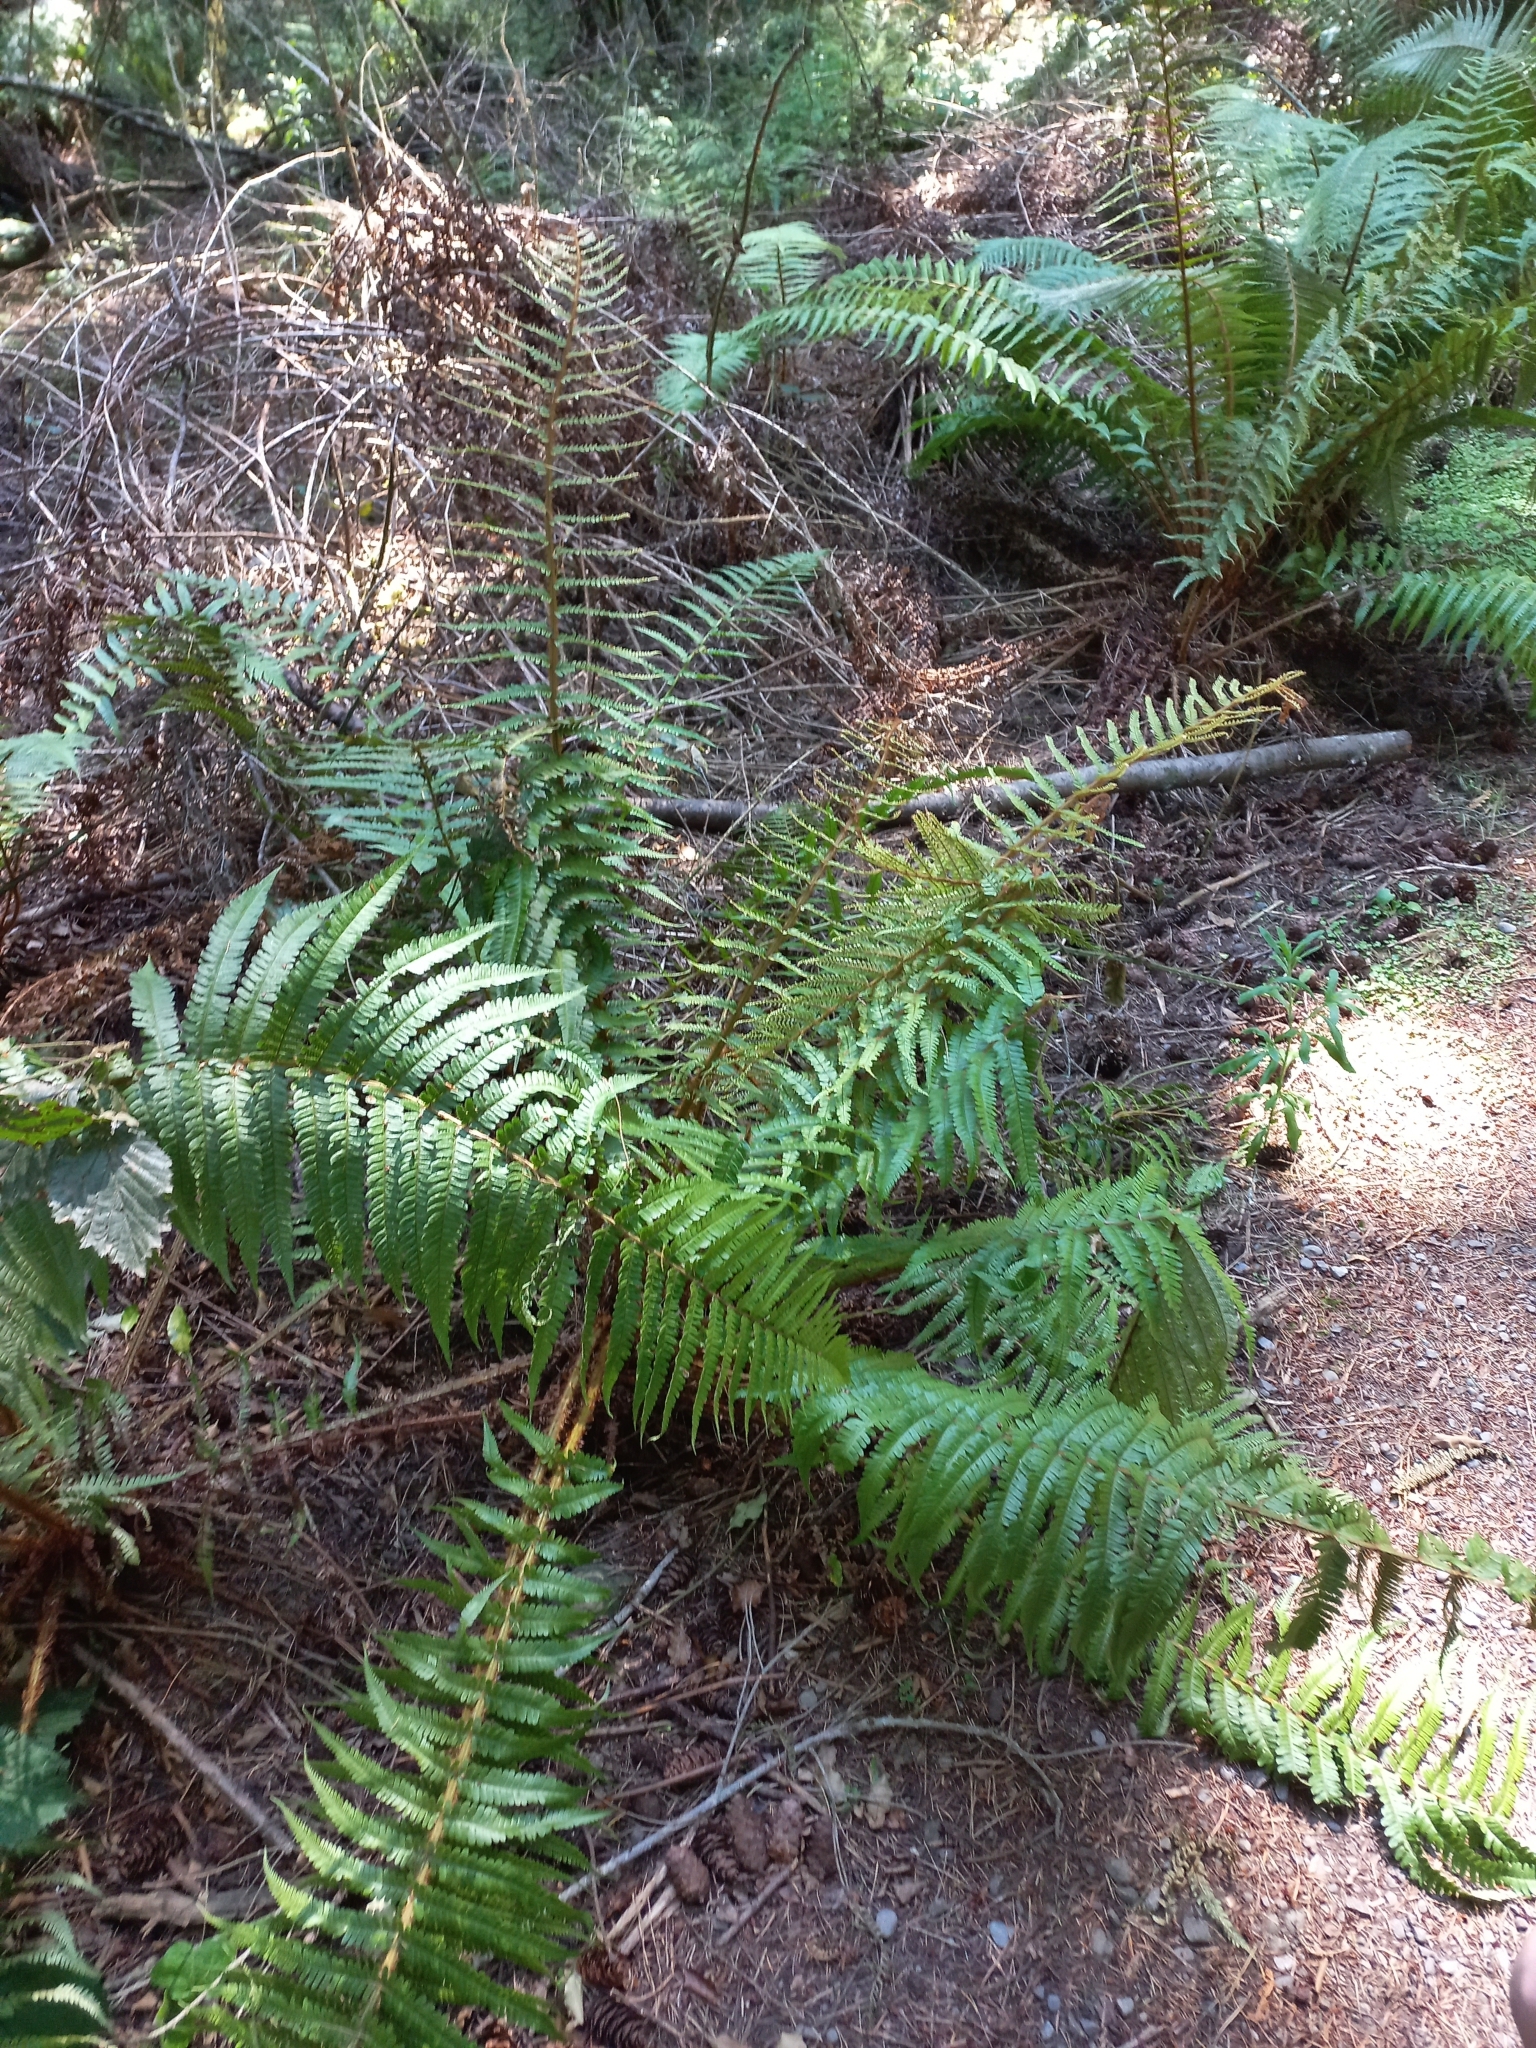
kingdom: Plantae
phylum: Tracheophyta
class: Polypodiopsida
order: Polypodiales
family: Dryopteridaceae
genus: Dryopteris
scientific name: Dryopteris filix-mas
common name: Male fern
